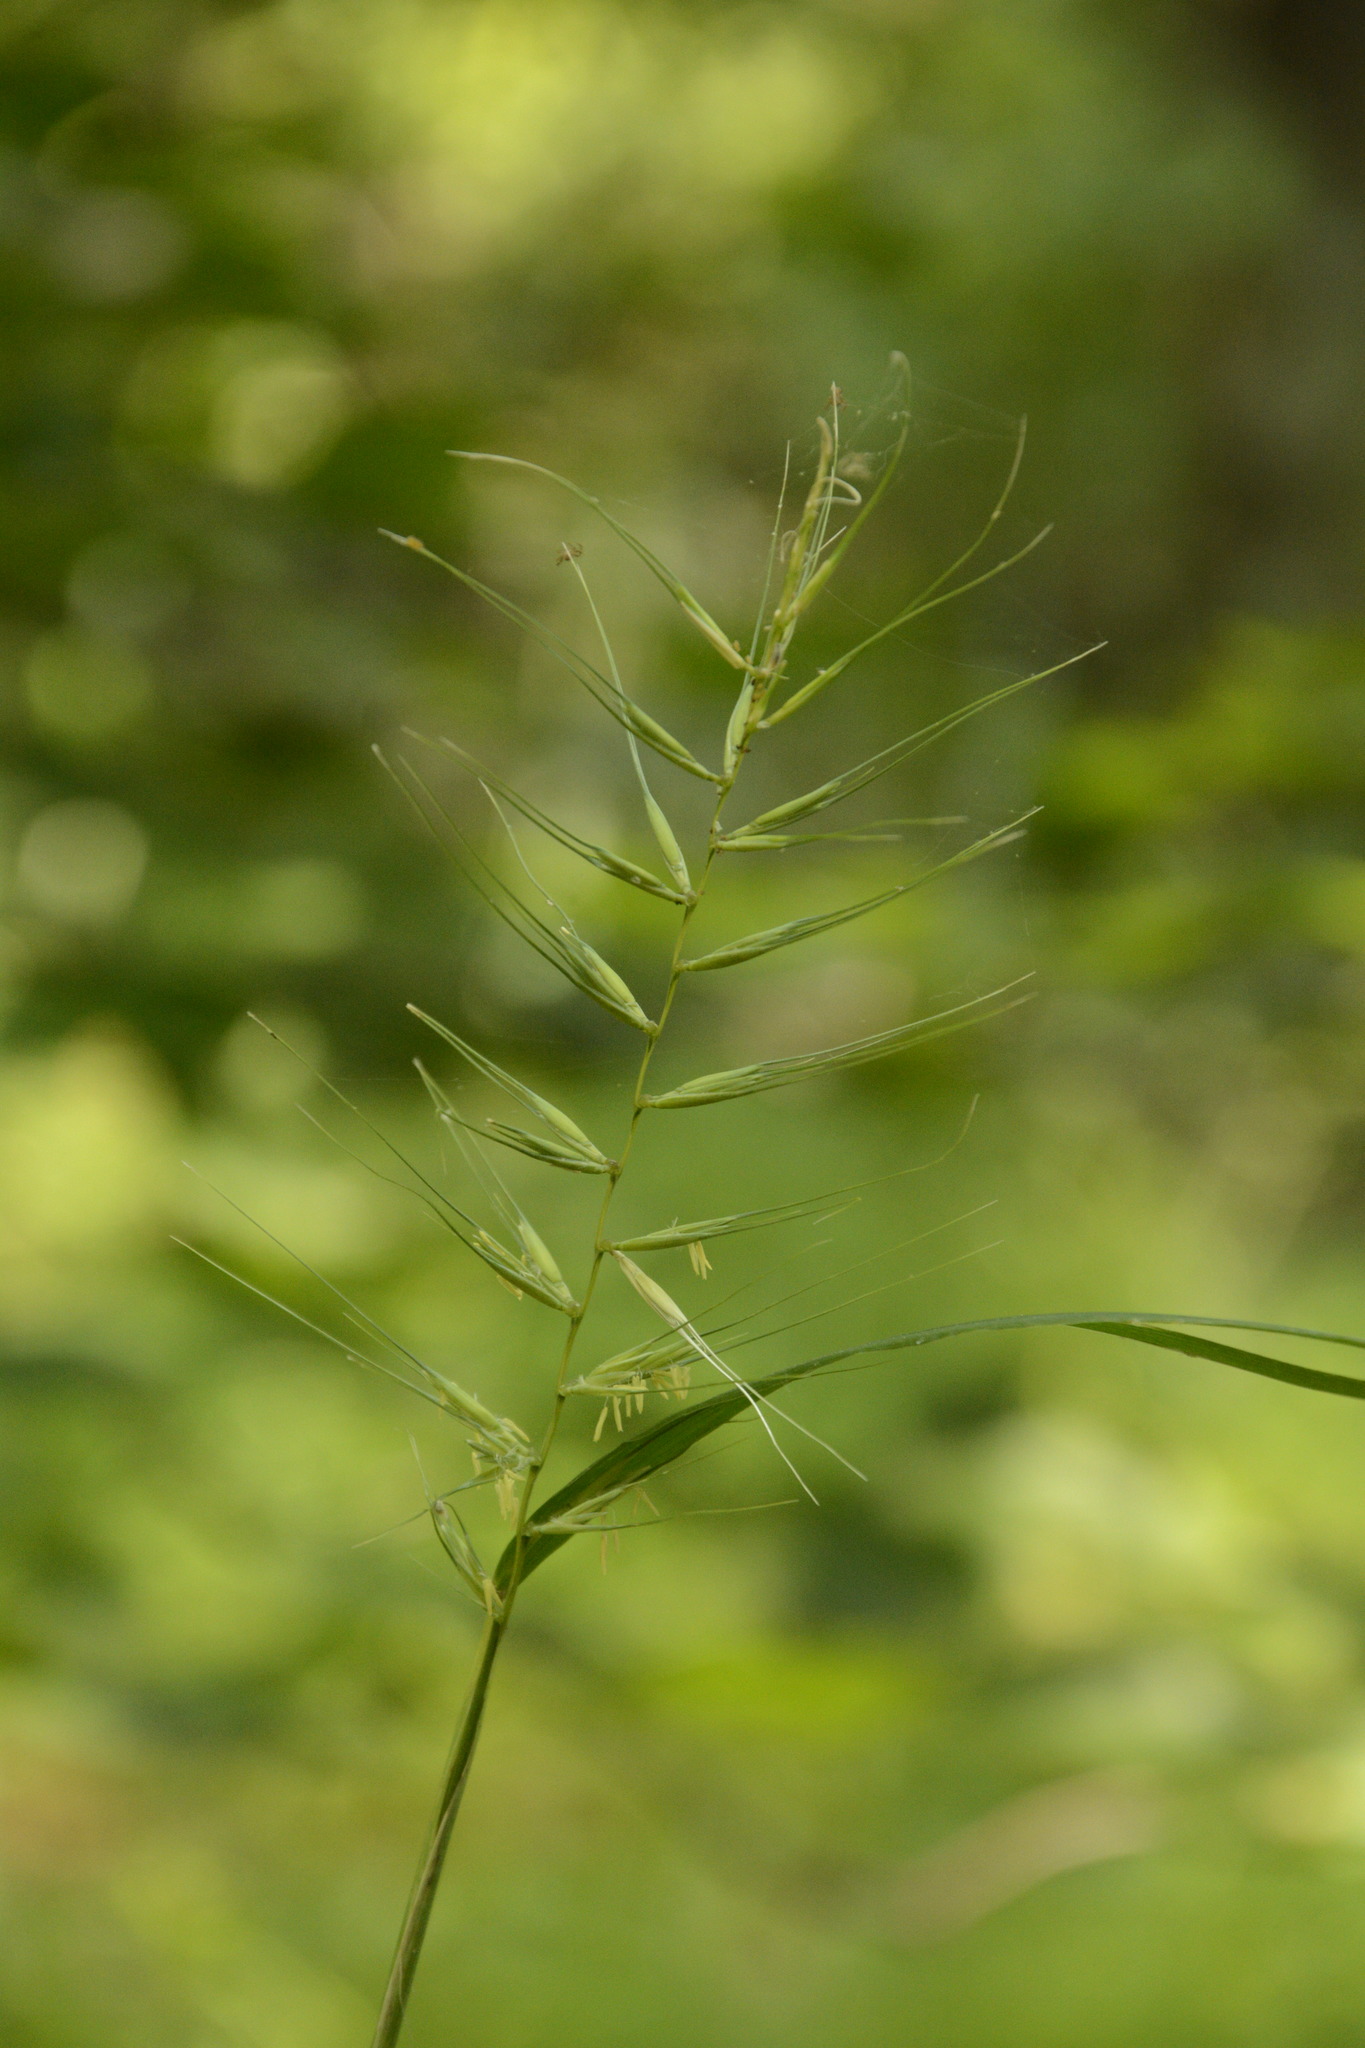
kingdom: Plantae
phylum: Tracheophyta
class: Liliopsida
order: Poales
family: Poaceae
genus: Elymus
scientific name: Elymus hystrix
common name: Bottlebrush grass
